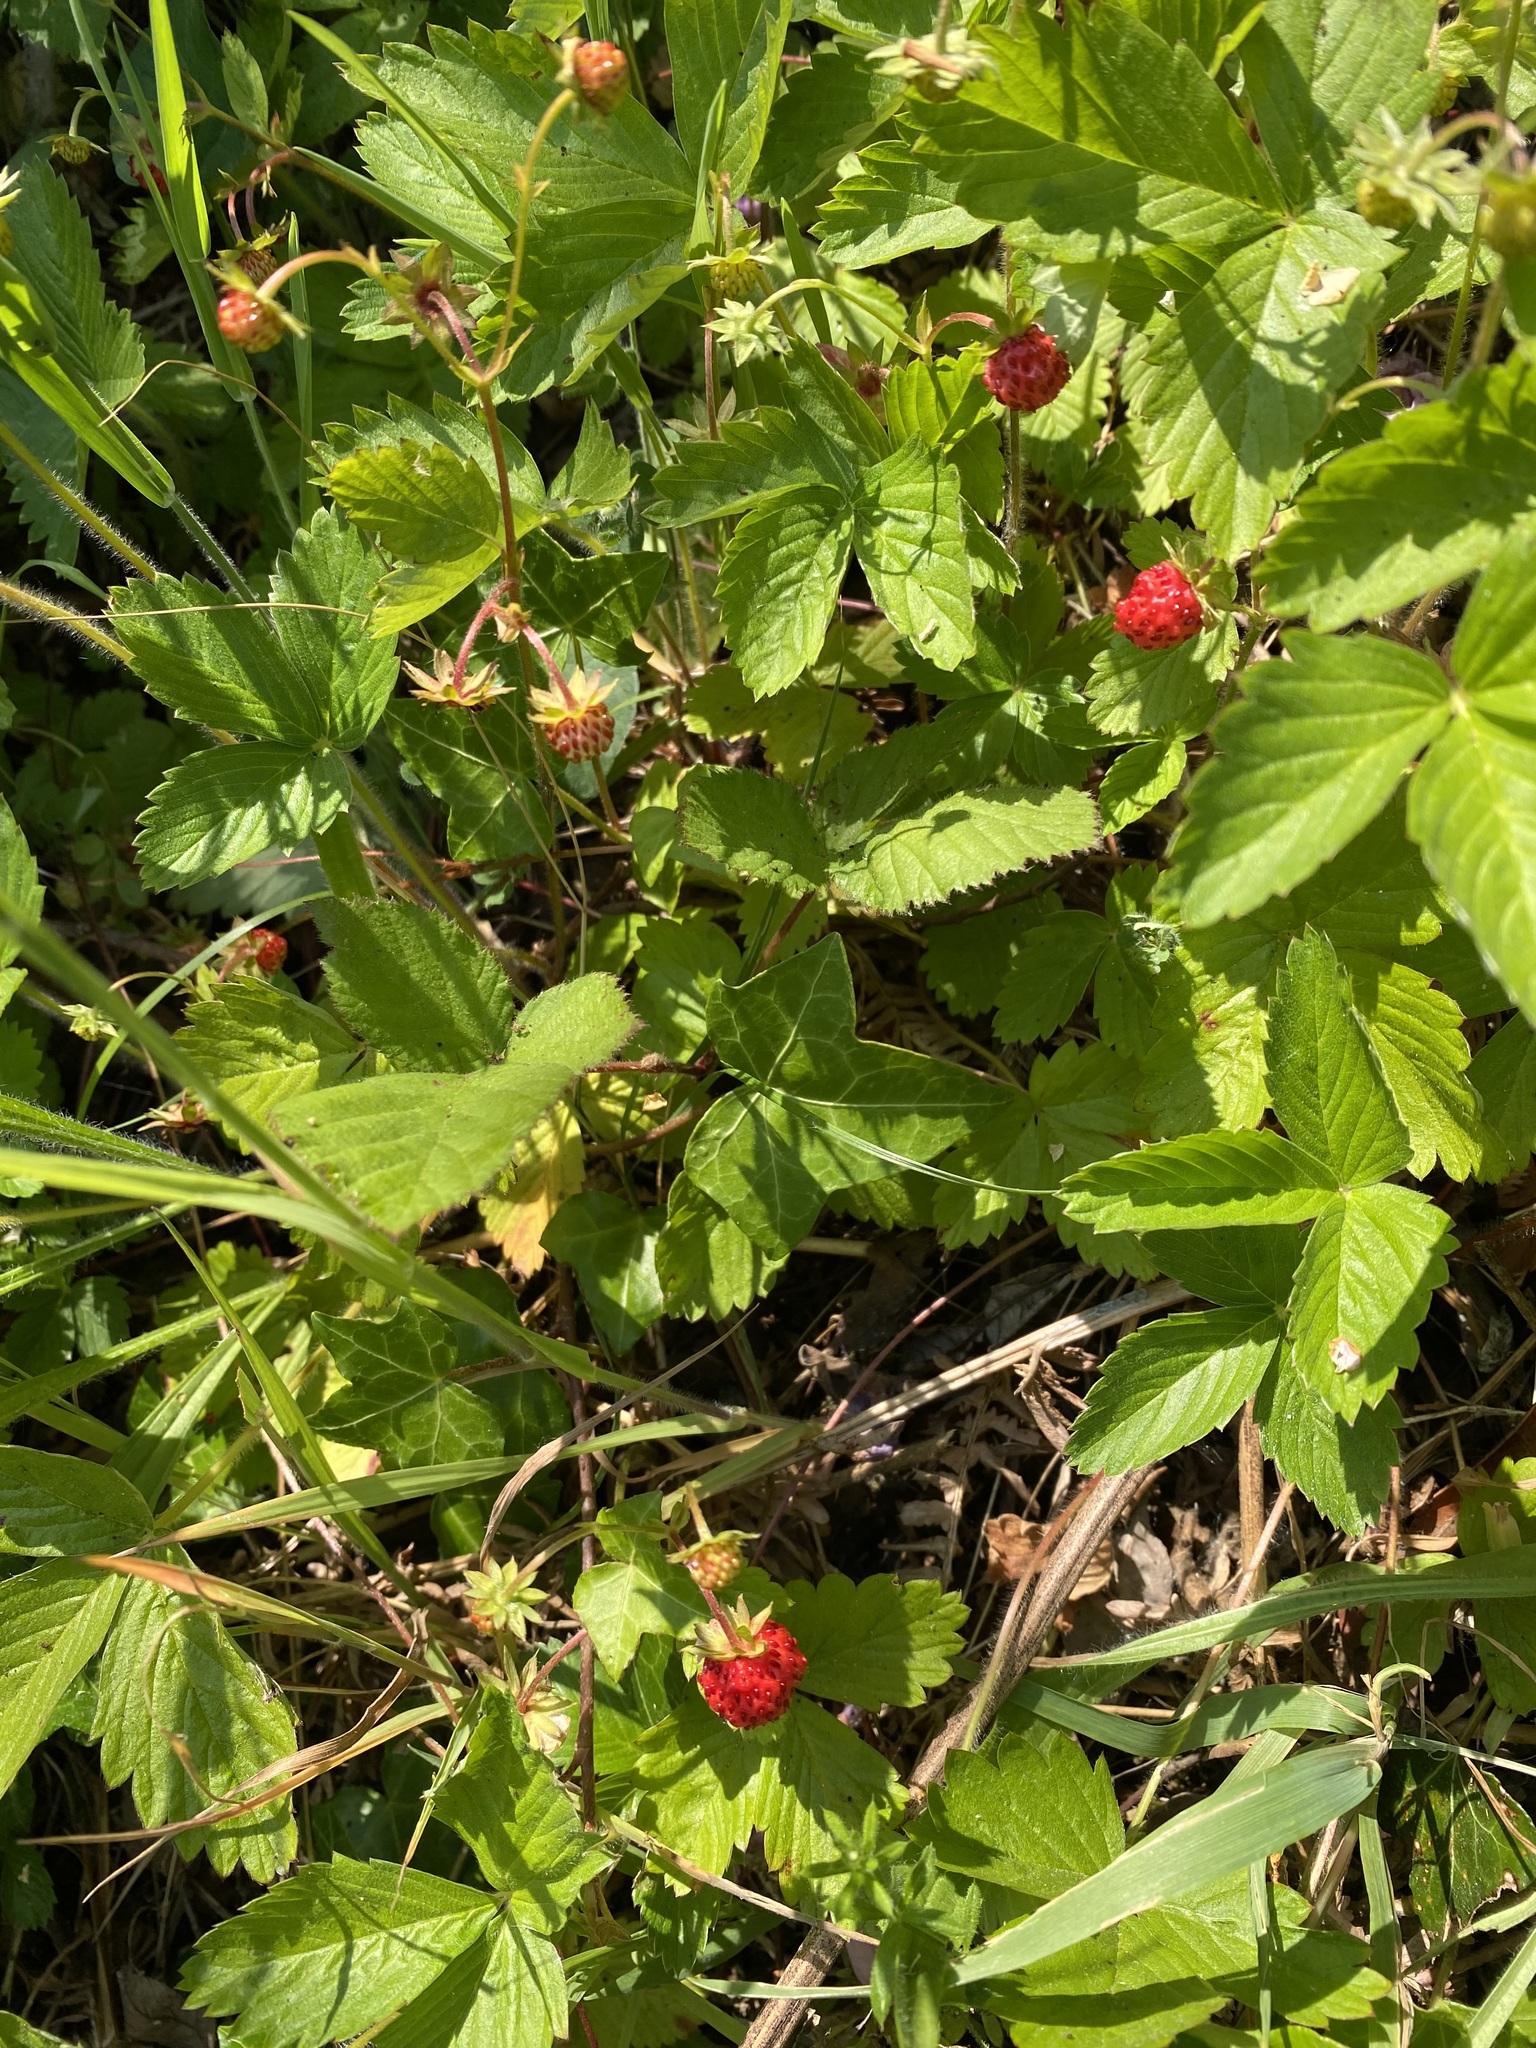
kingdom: Plantae
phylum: Tracheophyta
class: Magnoliopsida
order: Rosales
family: Rosaceae
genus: Fragaria
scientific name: Fragaria vesca
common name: Wild strawberry
